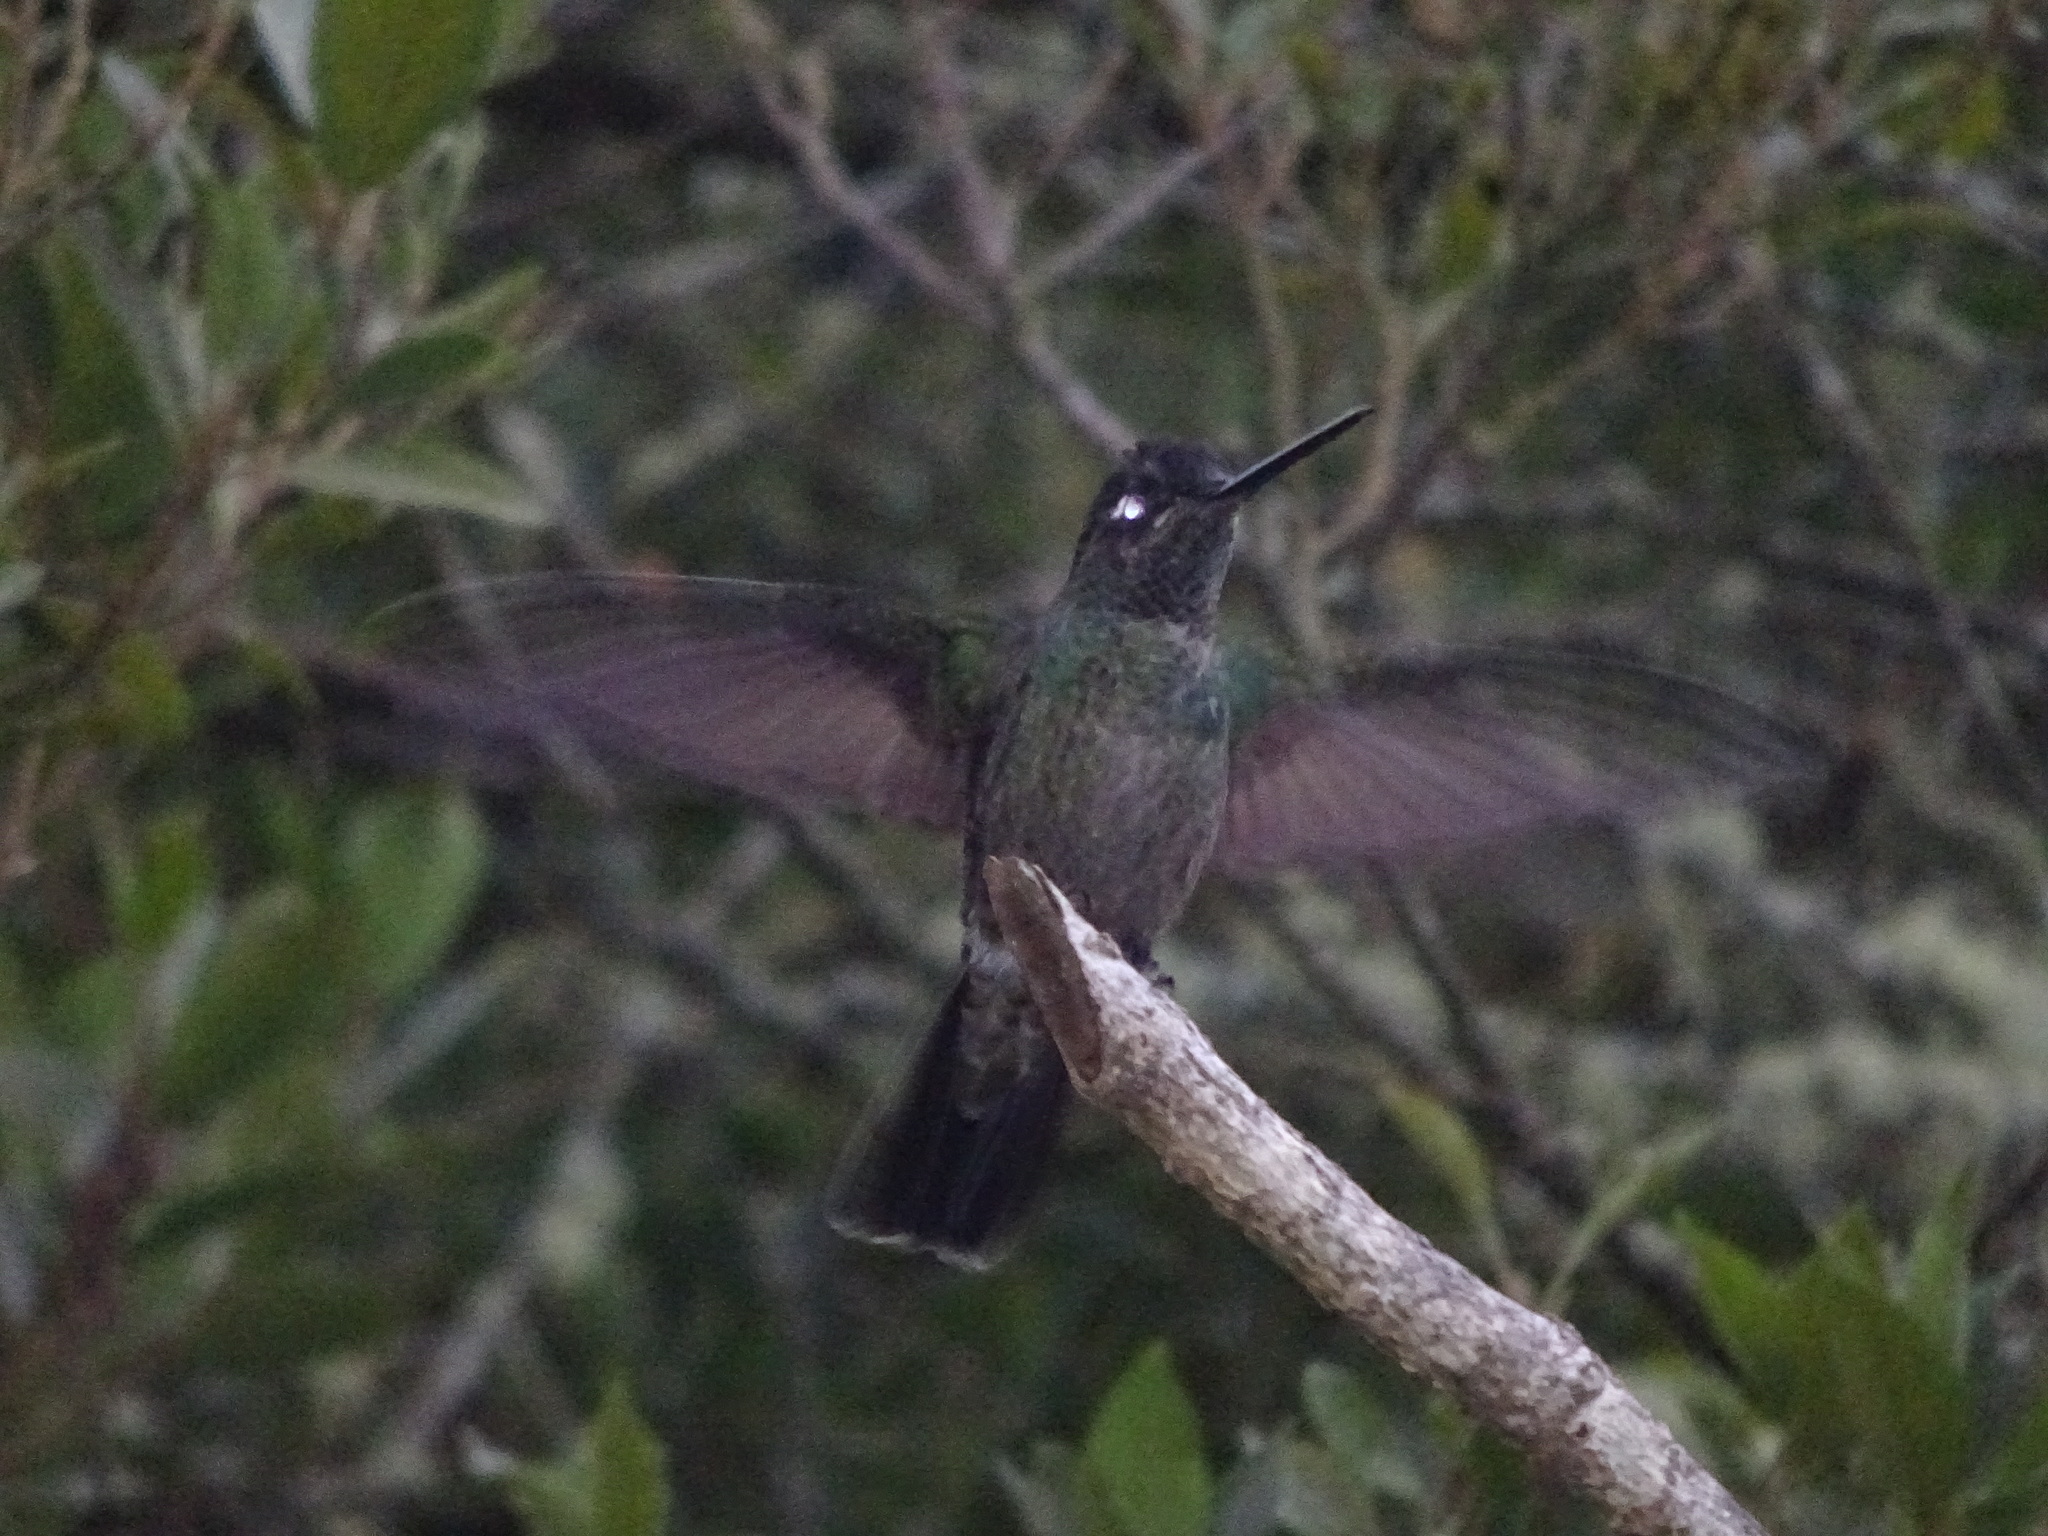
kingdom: Animalia
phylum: Chordata
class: Aves
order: Apodiformes
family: Trochilidae
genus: Eugenes
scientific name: Eugenes spectabilis
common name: Talamanca hummingbird
